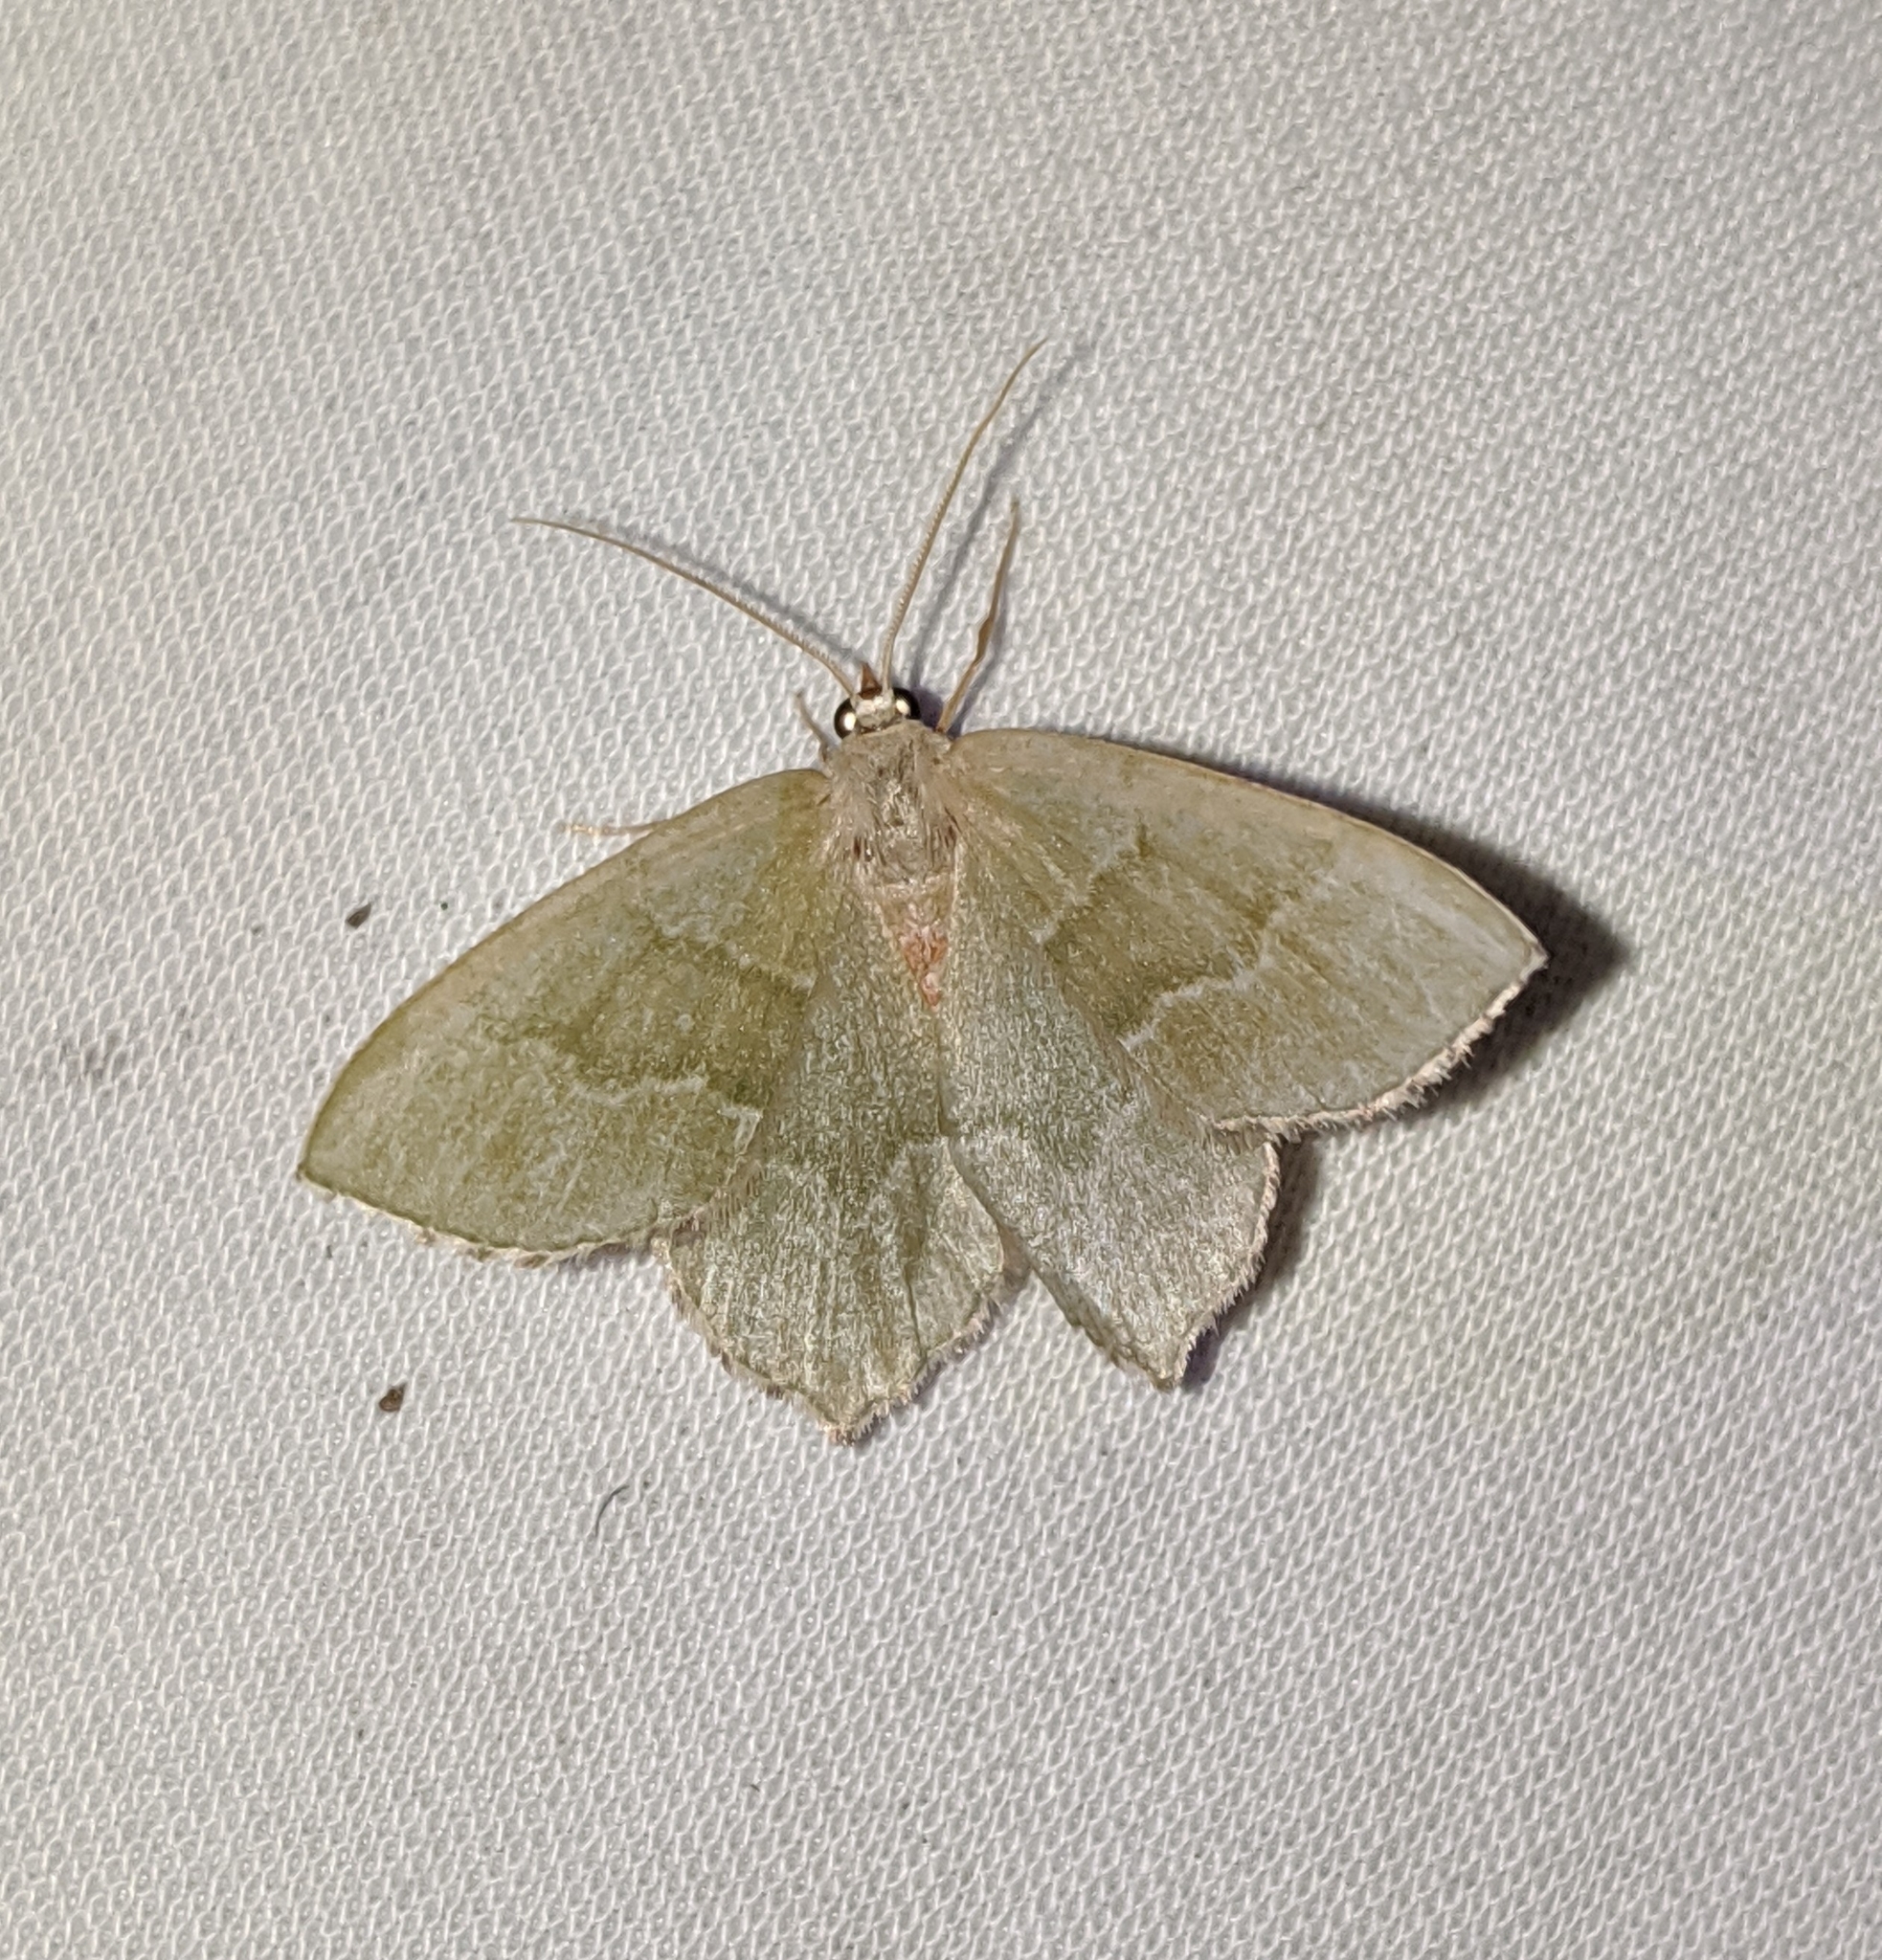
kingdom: Animalia
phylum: Arthropoda
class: Insecta
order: Lepidoptera
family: Geometridae
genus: Hemithea
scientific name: Hemithea aestivaria
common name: Common emerald
